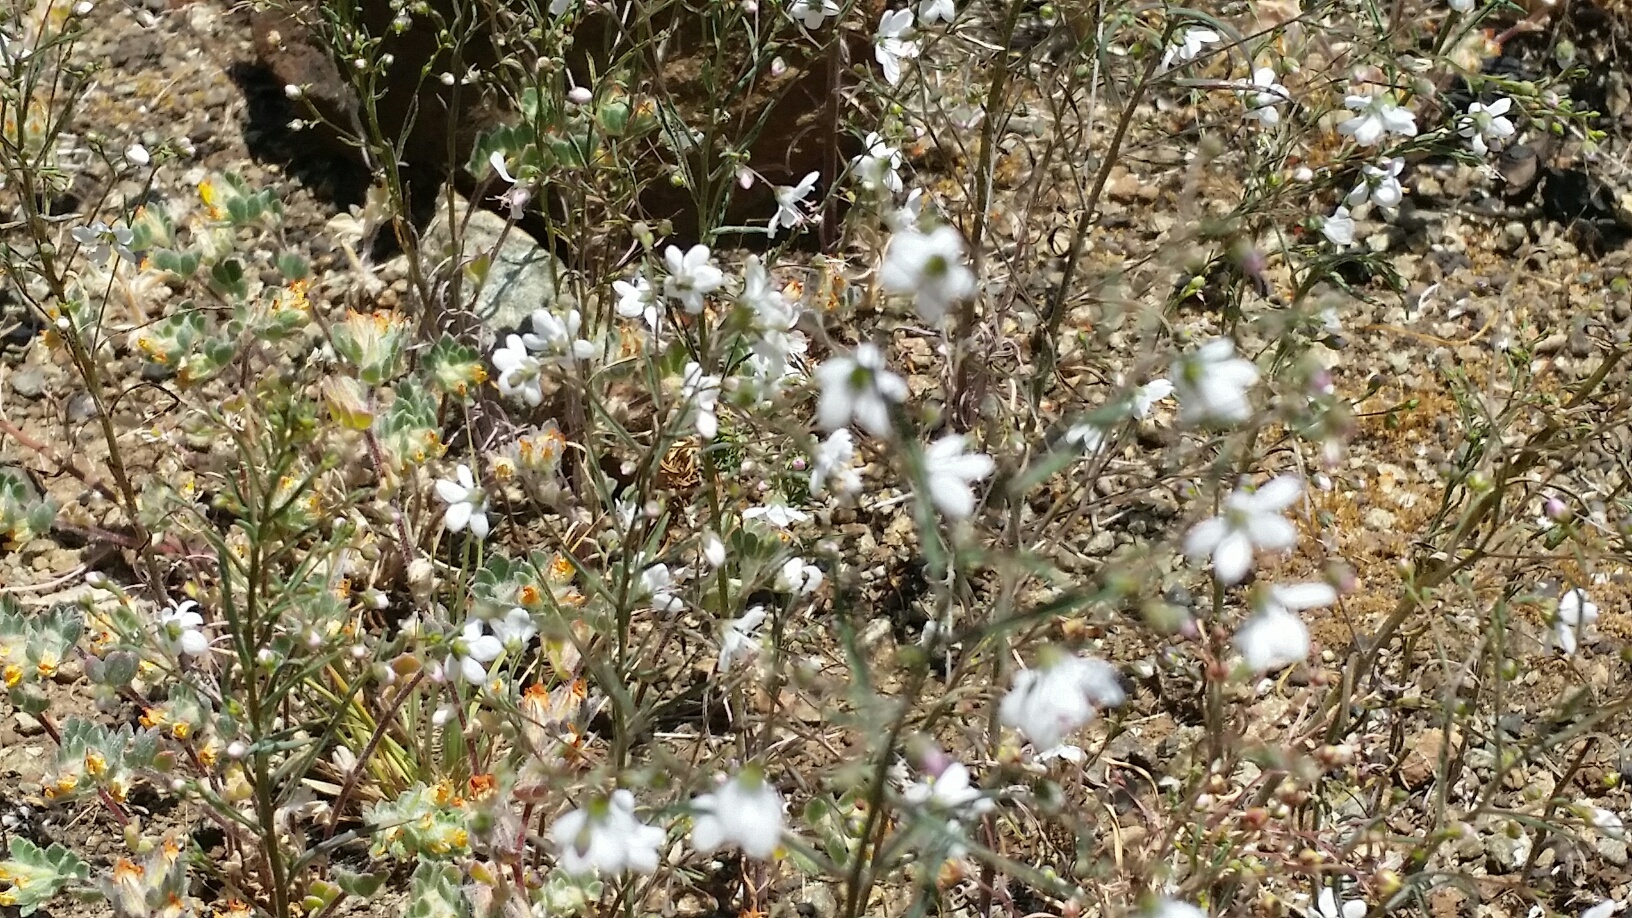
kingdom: Plantae
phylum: Tracheophyta
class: Magnoliopsida
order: Malpighiales
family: Linaceae
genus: Hesperolinon
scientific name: Hesperolinon spergulinum
